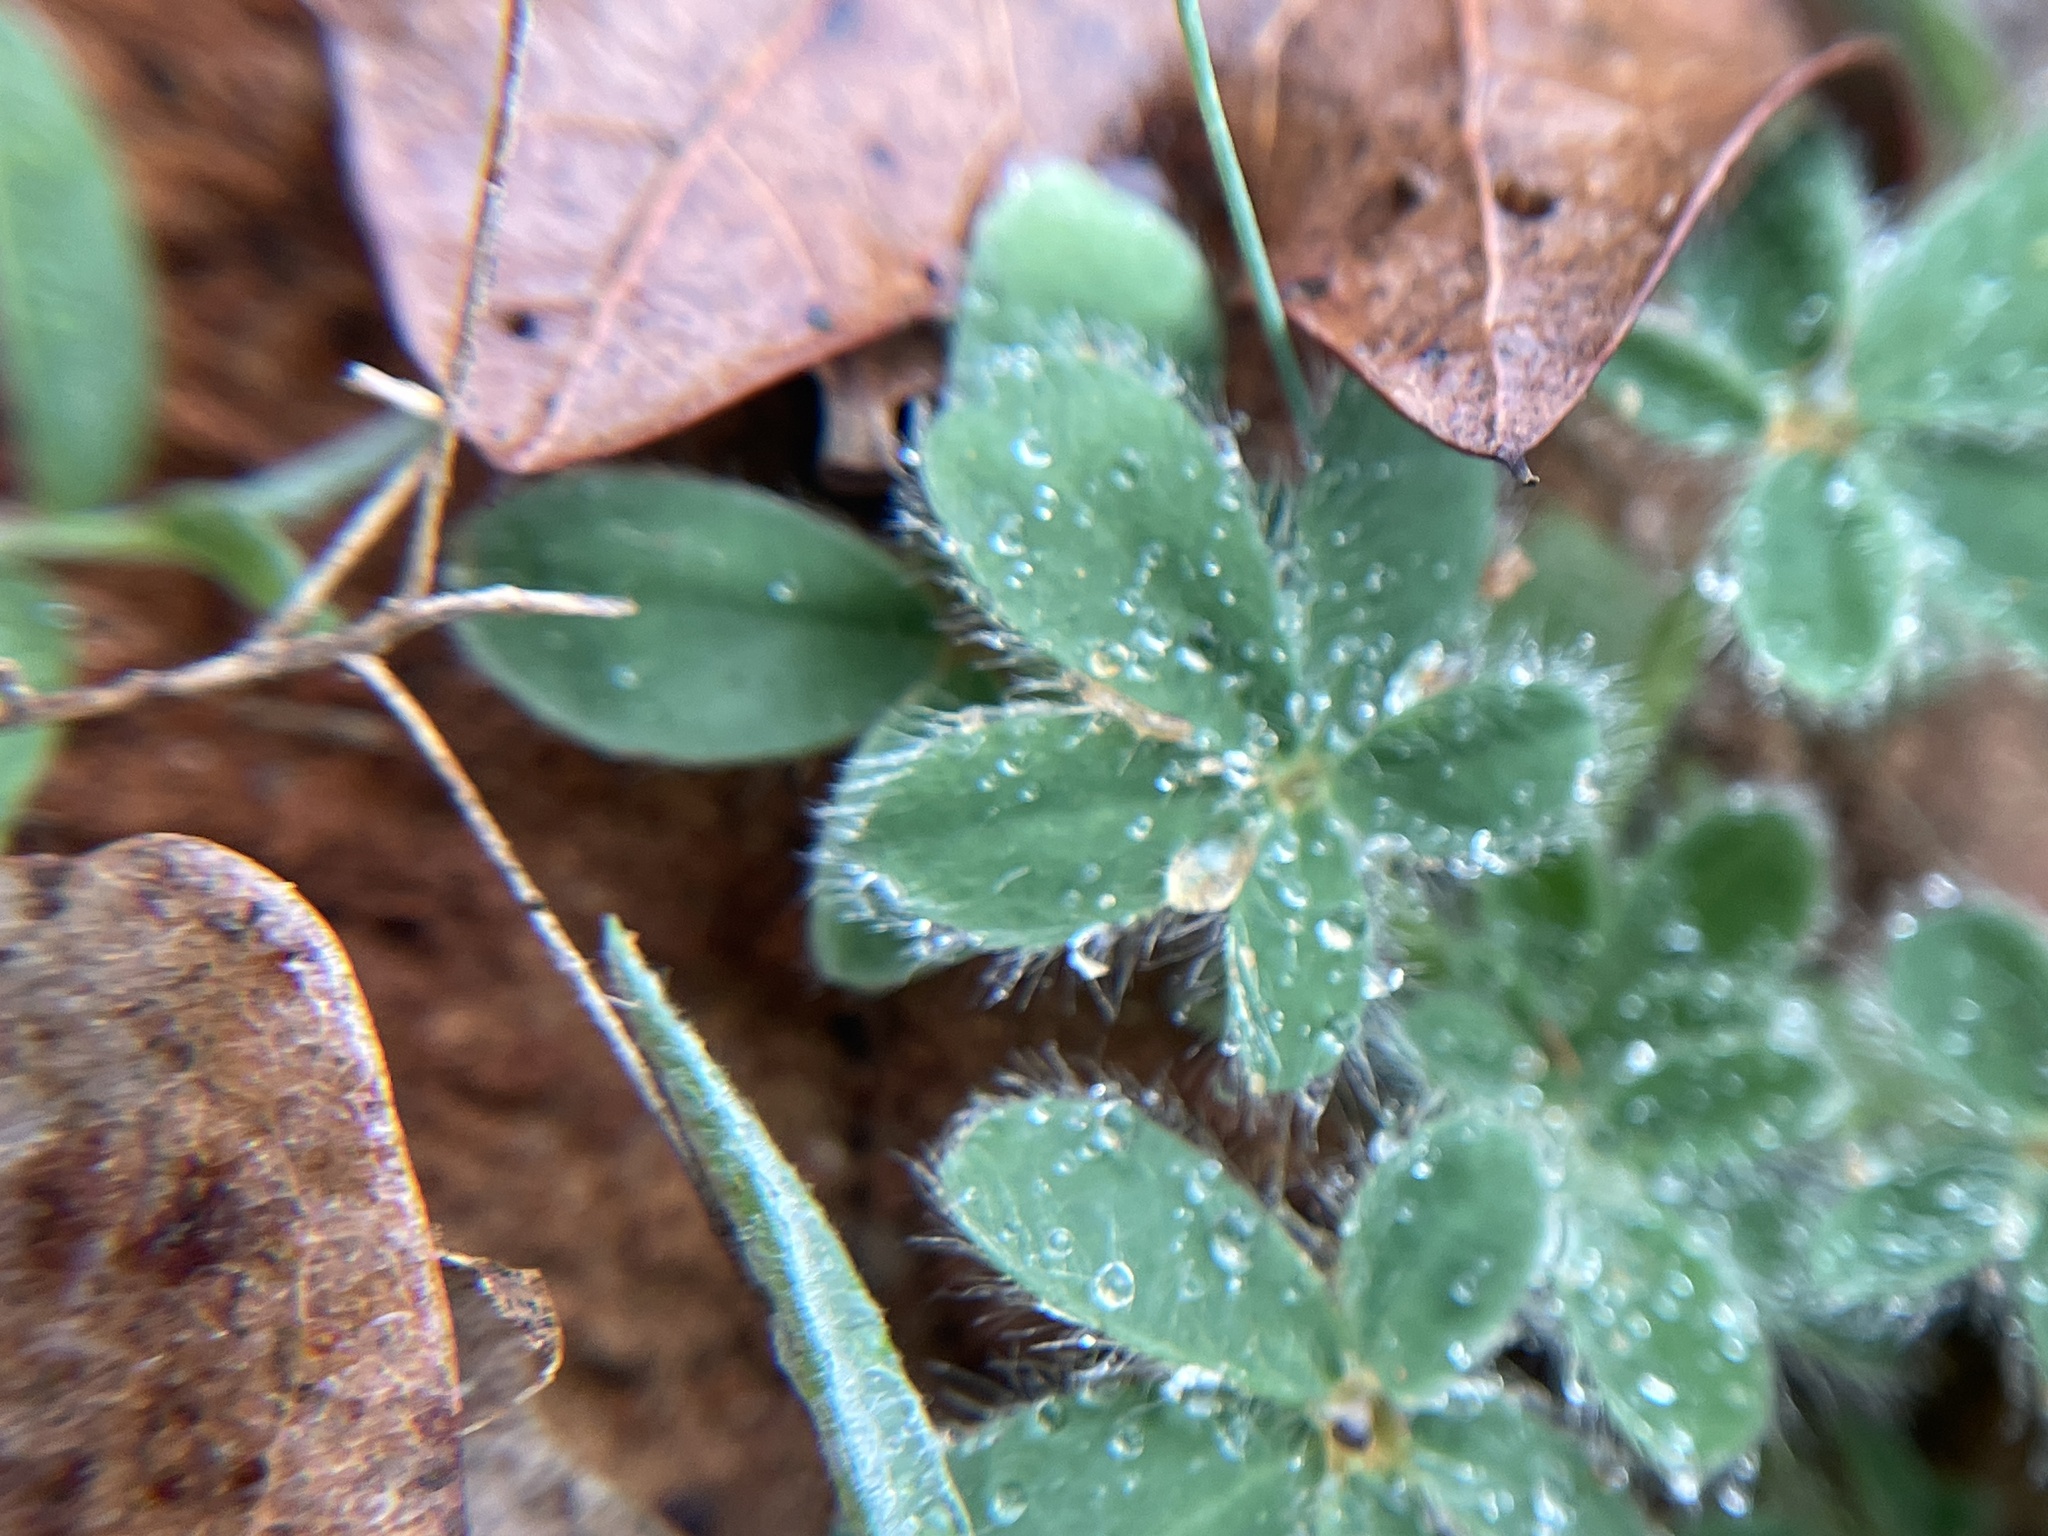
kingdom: Plantae
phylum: Tracheophyta
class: Magnoliopsida
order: Fabales
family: Fabaceae
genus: Lupinus
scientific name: Lupinus subcarnosus
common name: Texas bluebonnet
